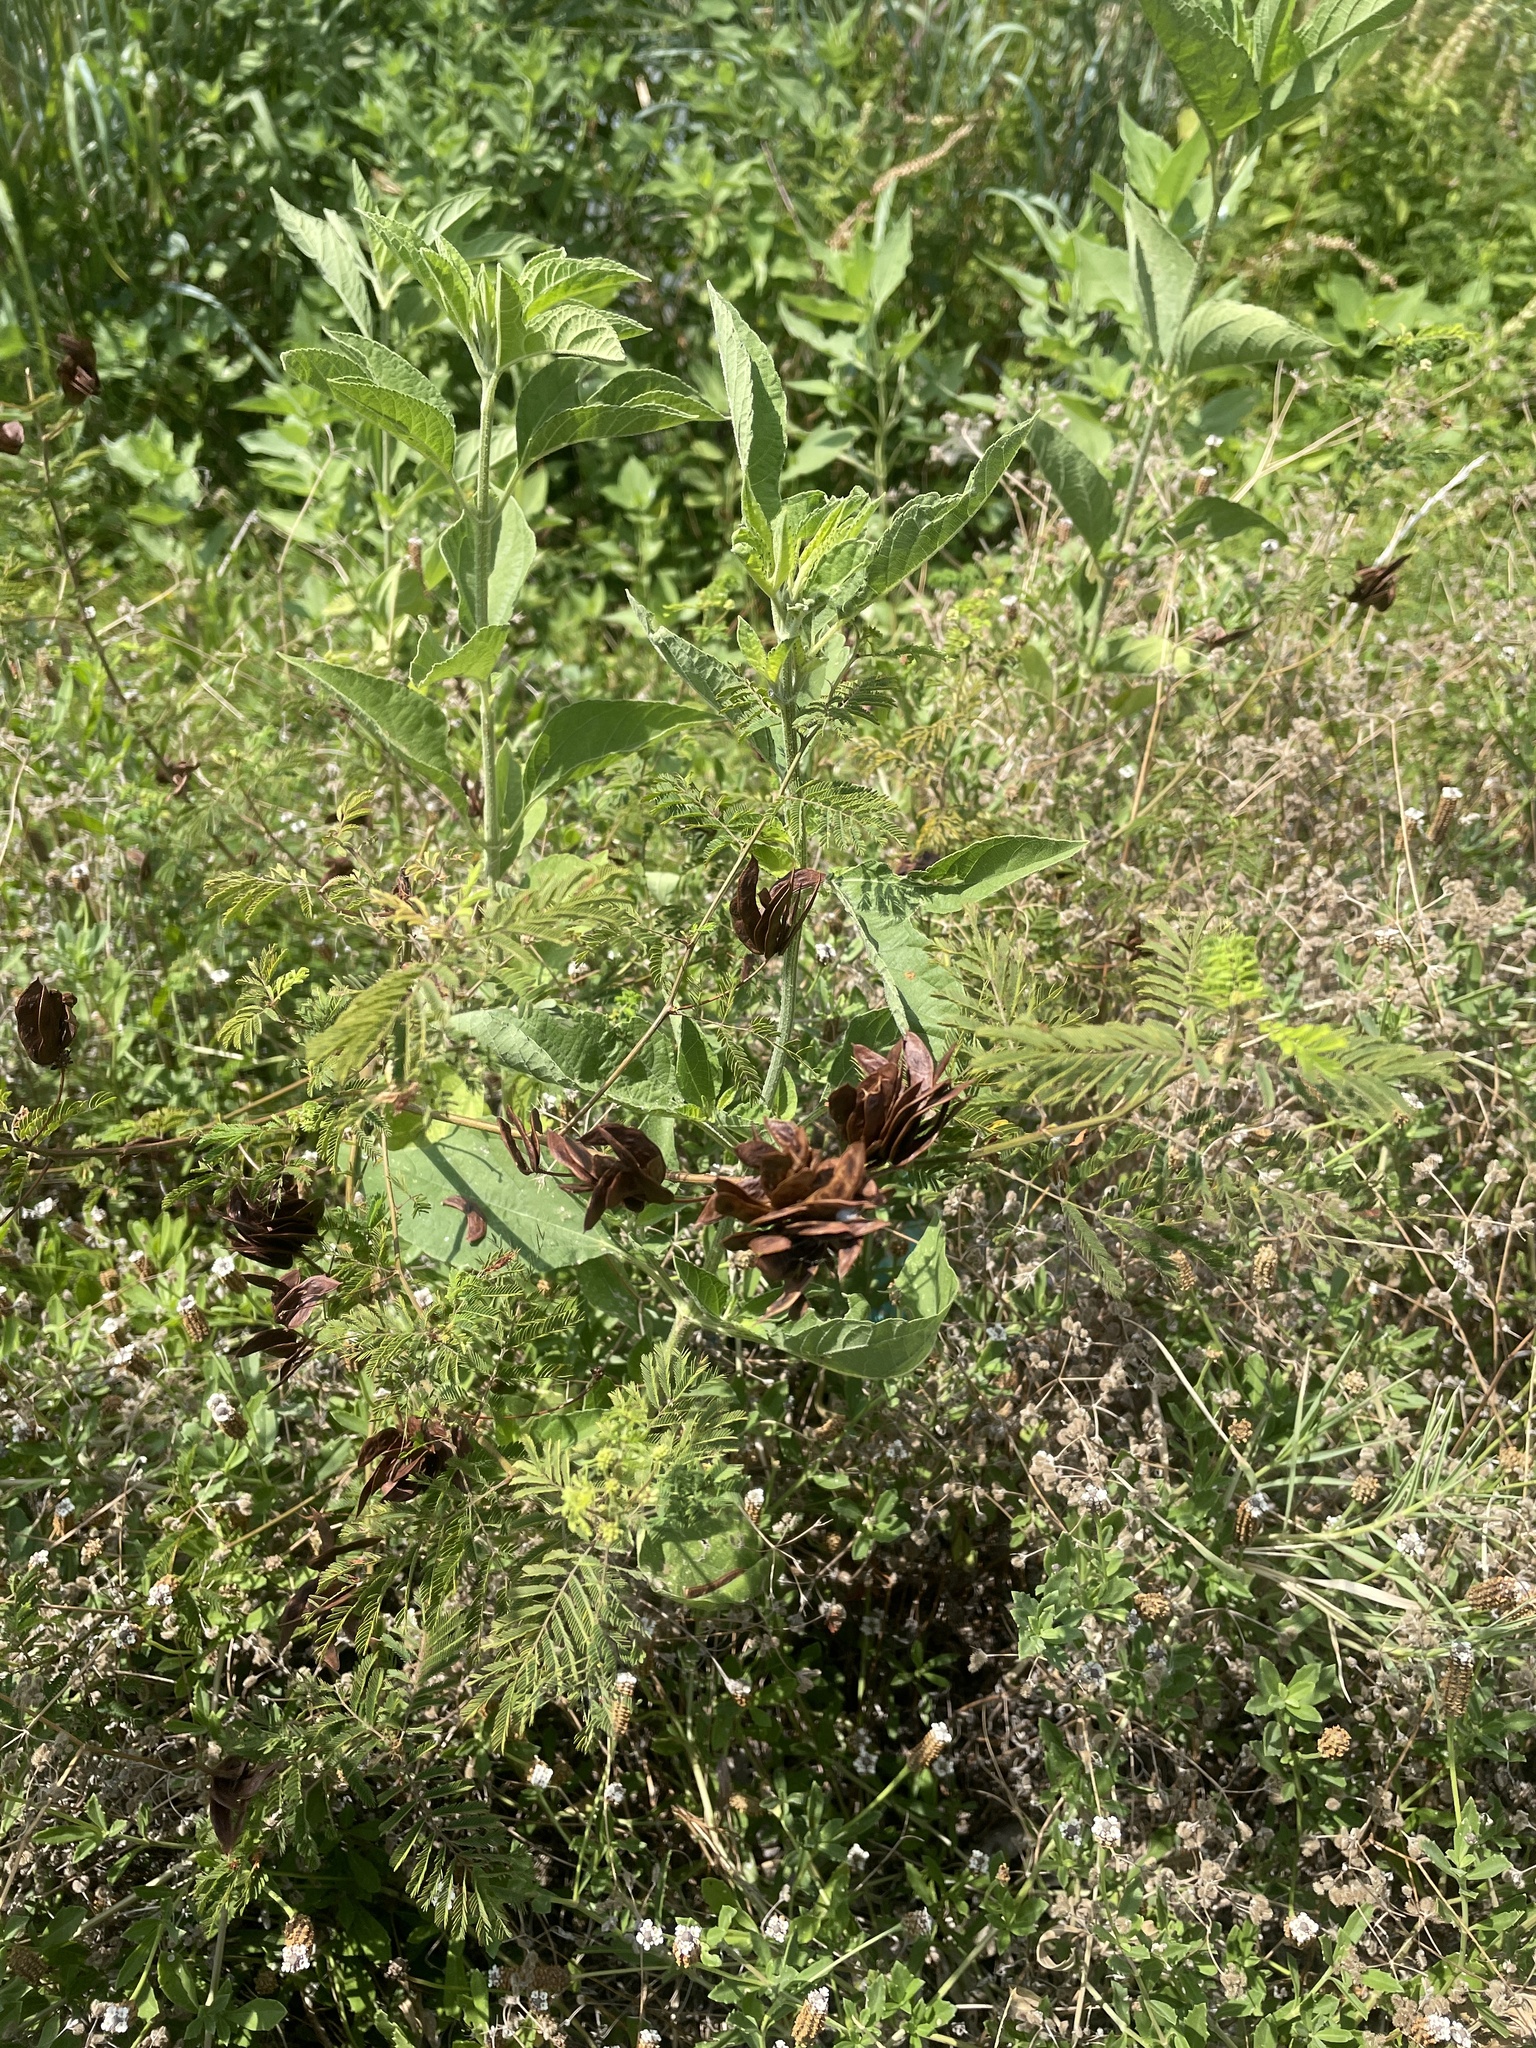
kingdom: Plantae
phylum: Tracheophyta
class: Magnoliopsida
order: Fabales
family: Fabaceae
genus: Desmanthus
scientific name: Desmanthus illinoensis
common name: Illinois bundle-flower
